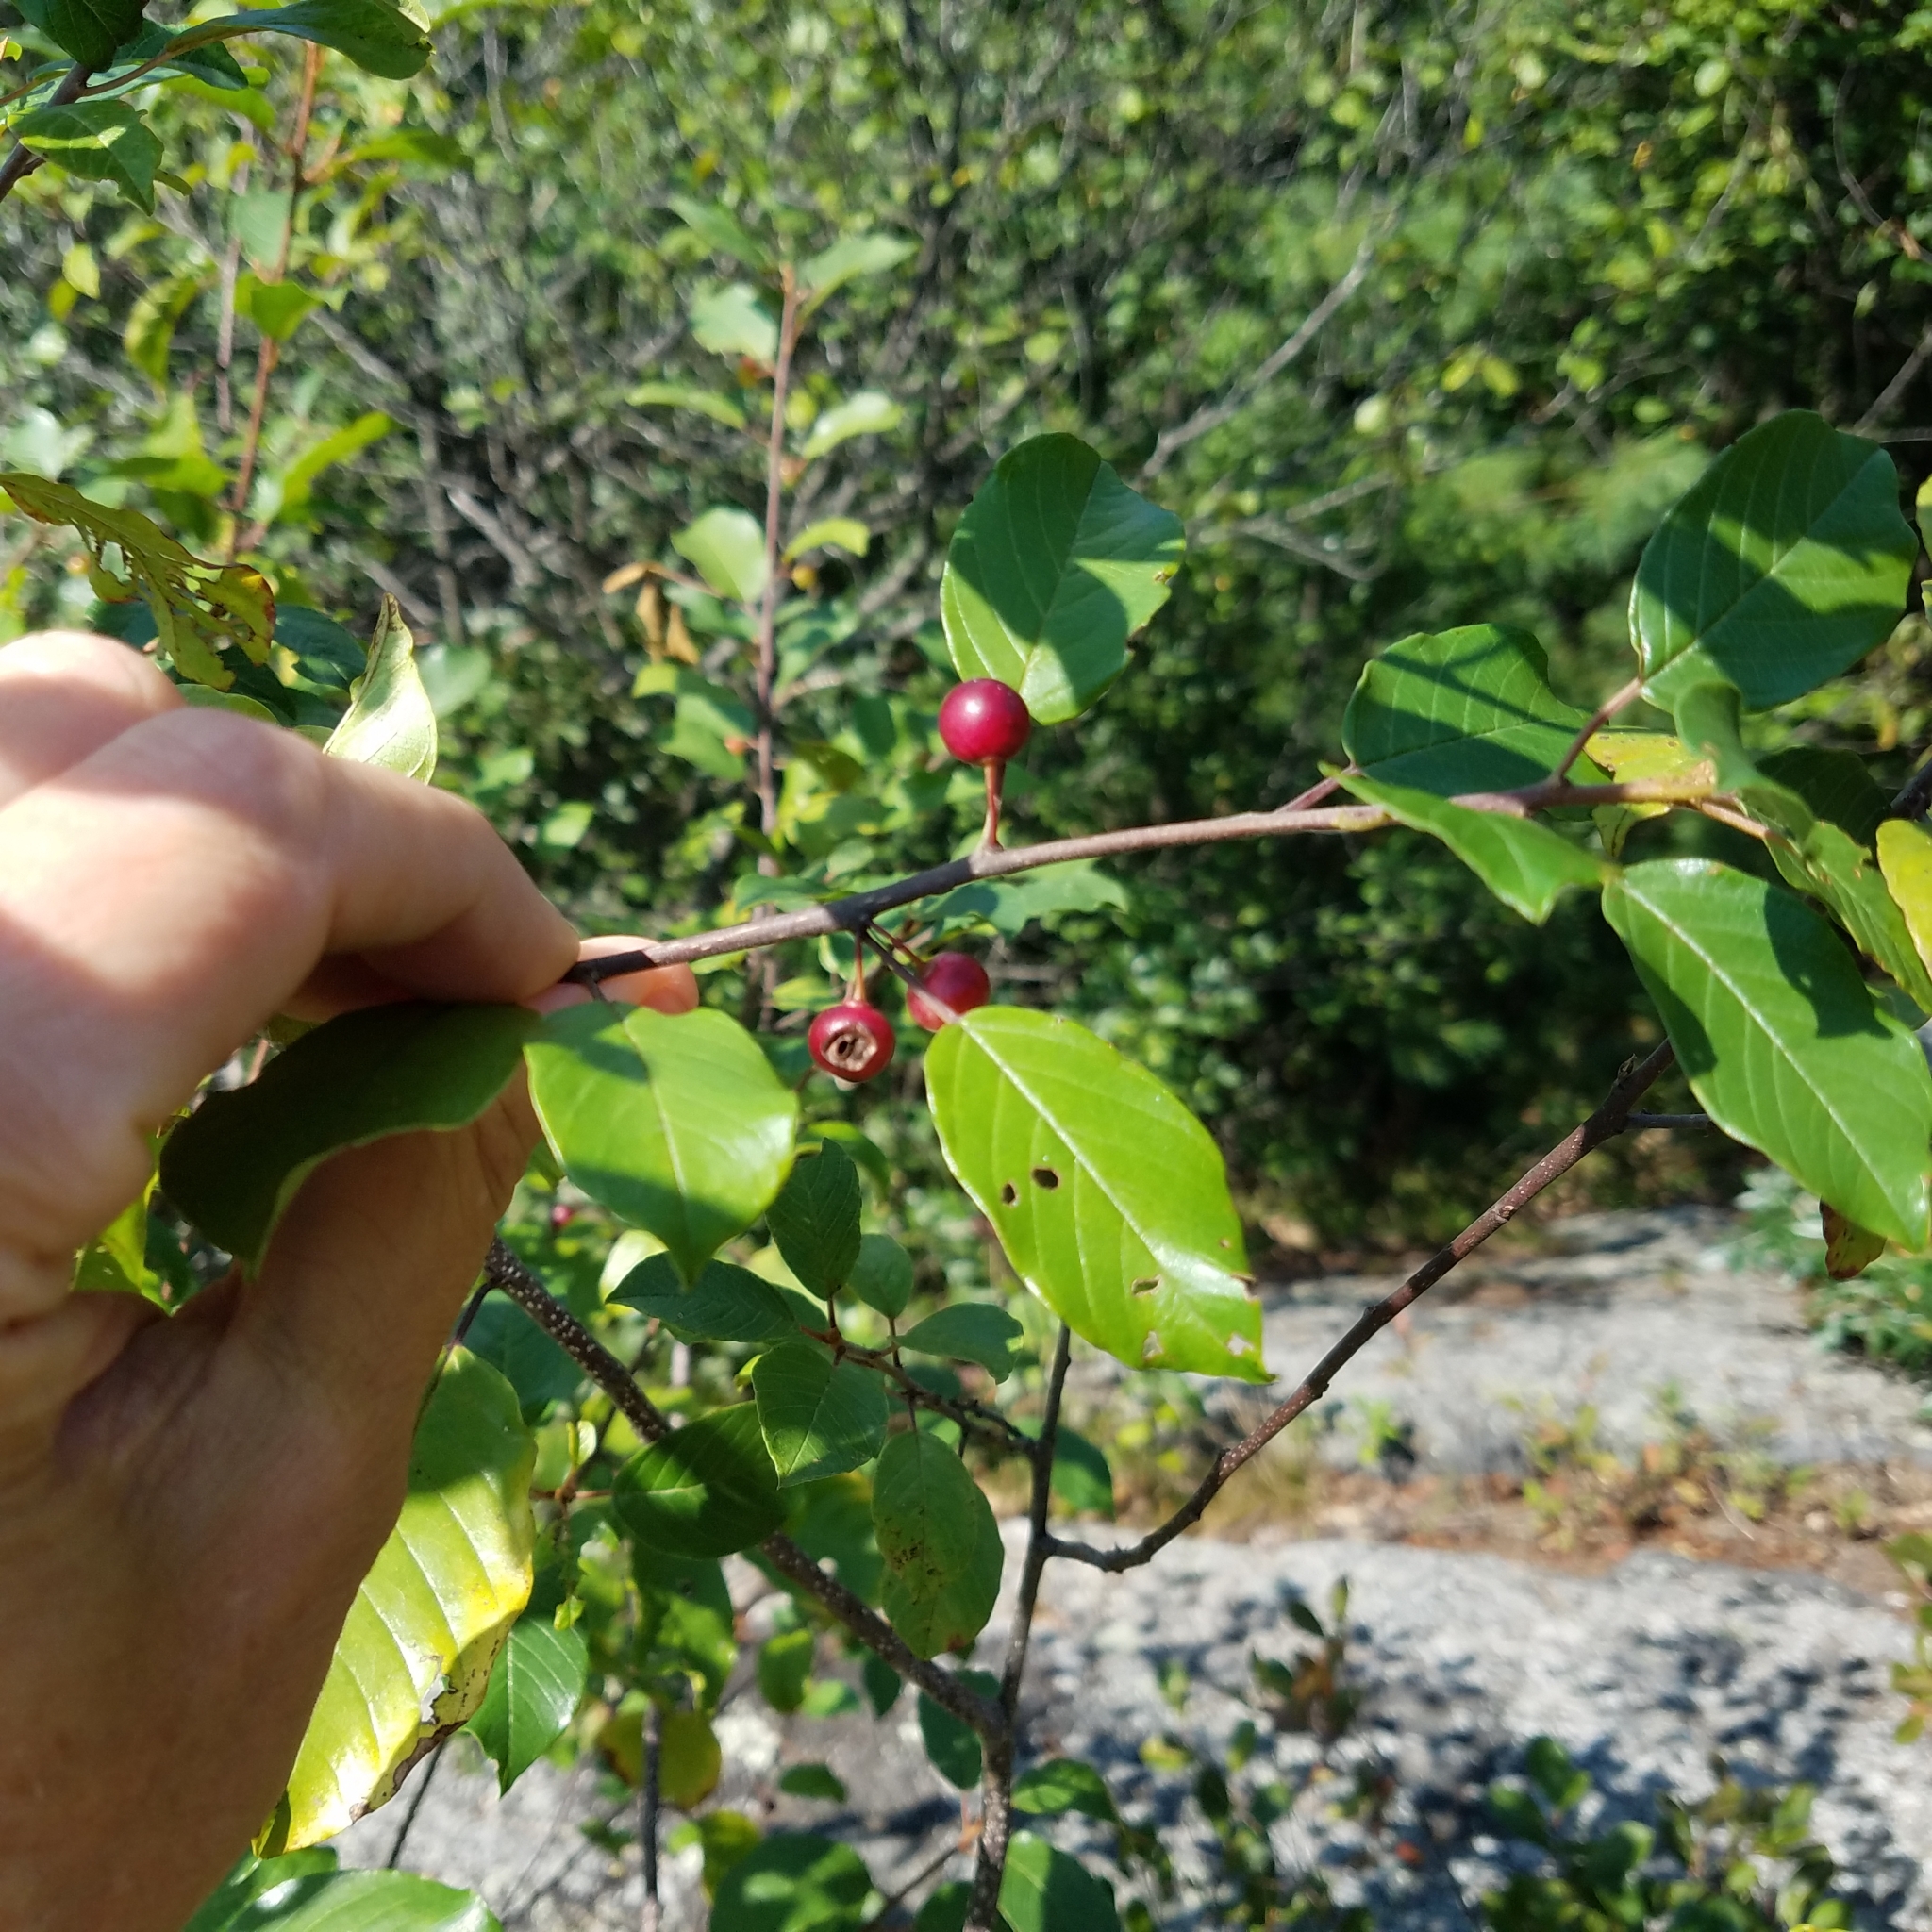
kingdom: Plantae
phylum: Tracheophyta
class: Magnoliopsida
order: Rosales
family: Rhamnaceae
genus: Frangula
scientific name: Frangula alnus
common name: Alder buckthorn
